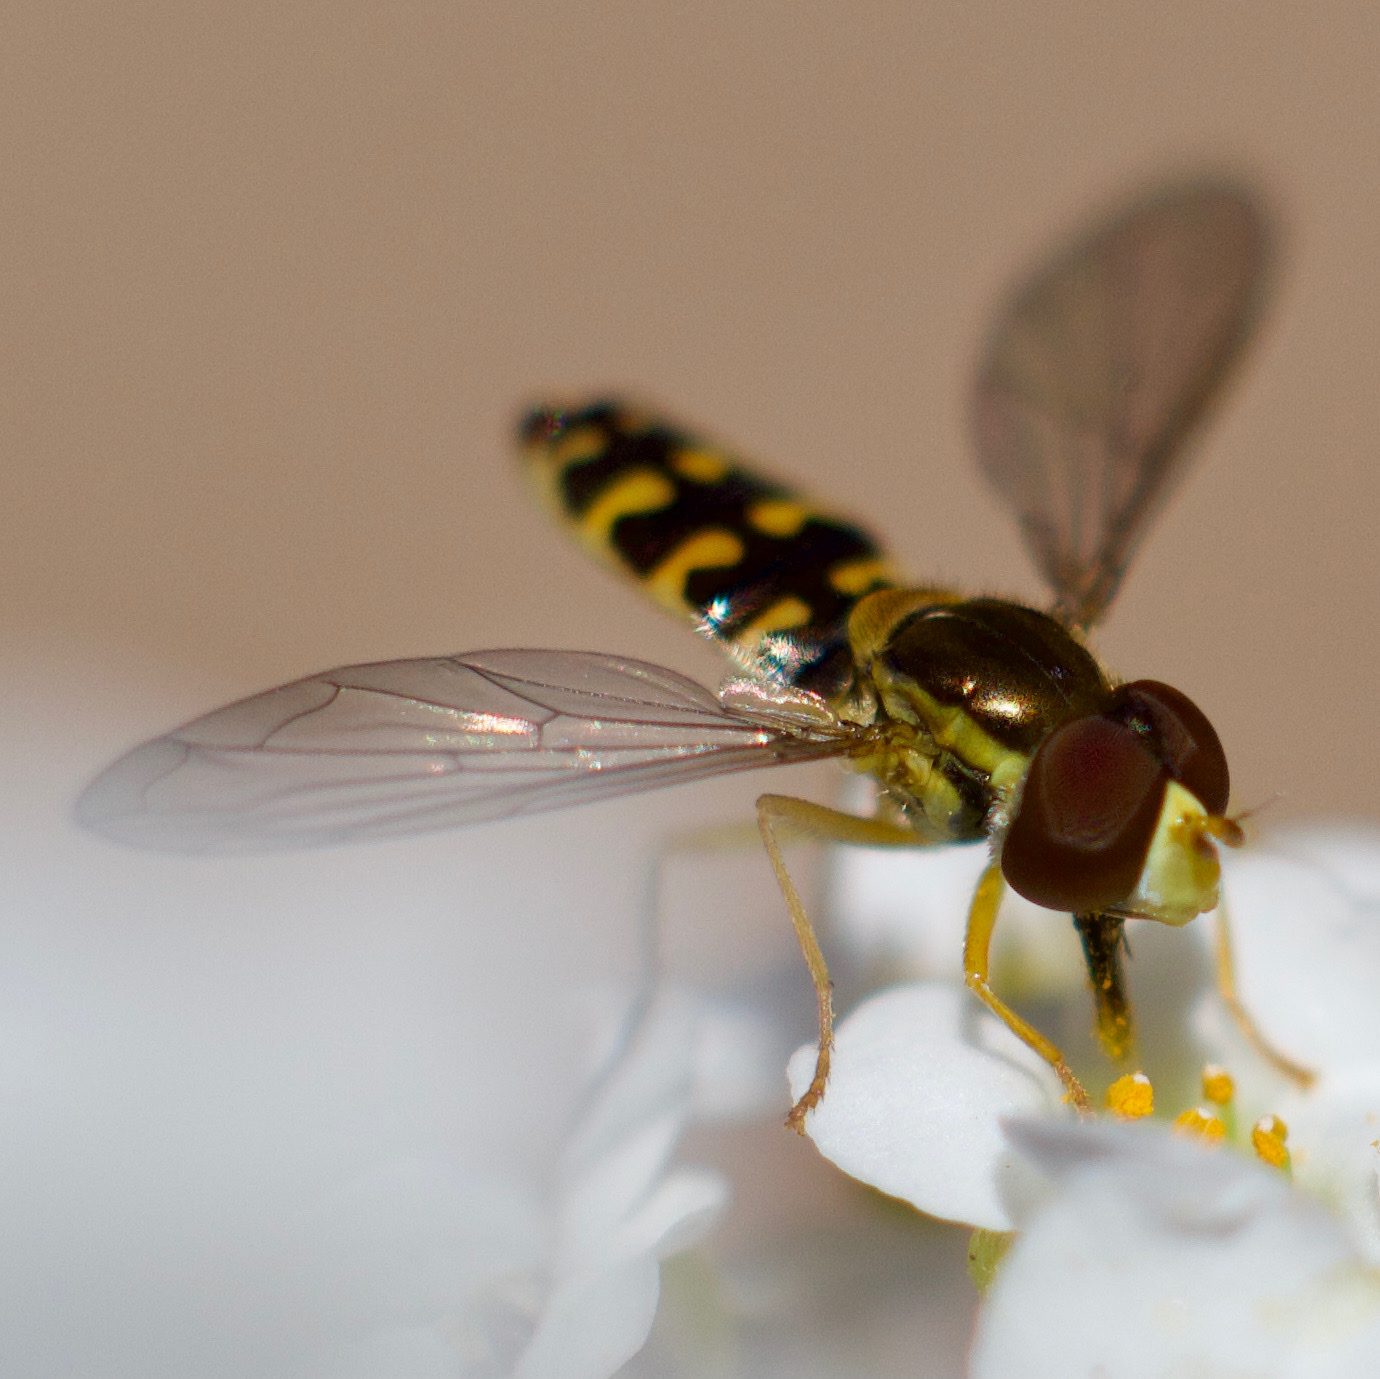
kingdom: Animalia
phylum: Arthropoda
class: Insecta
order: Diptera
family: Syrphidae
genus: Toxomerus
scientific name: Toxomerus vertebratus
